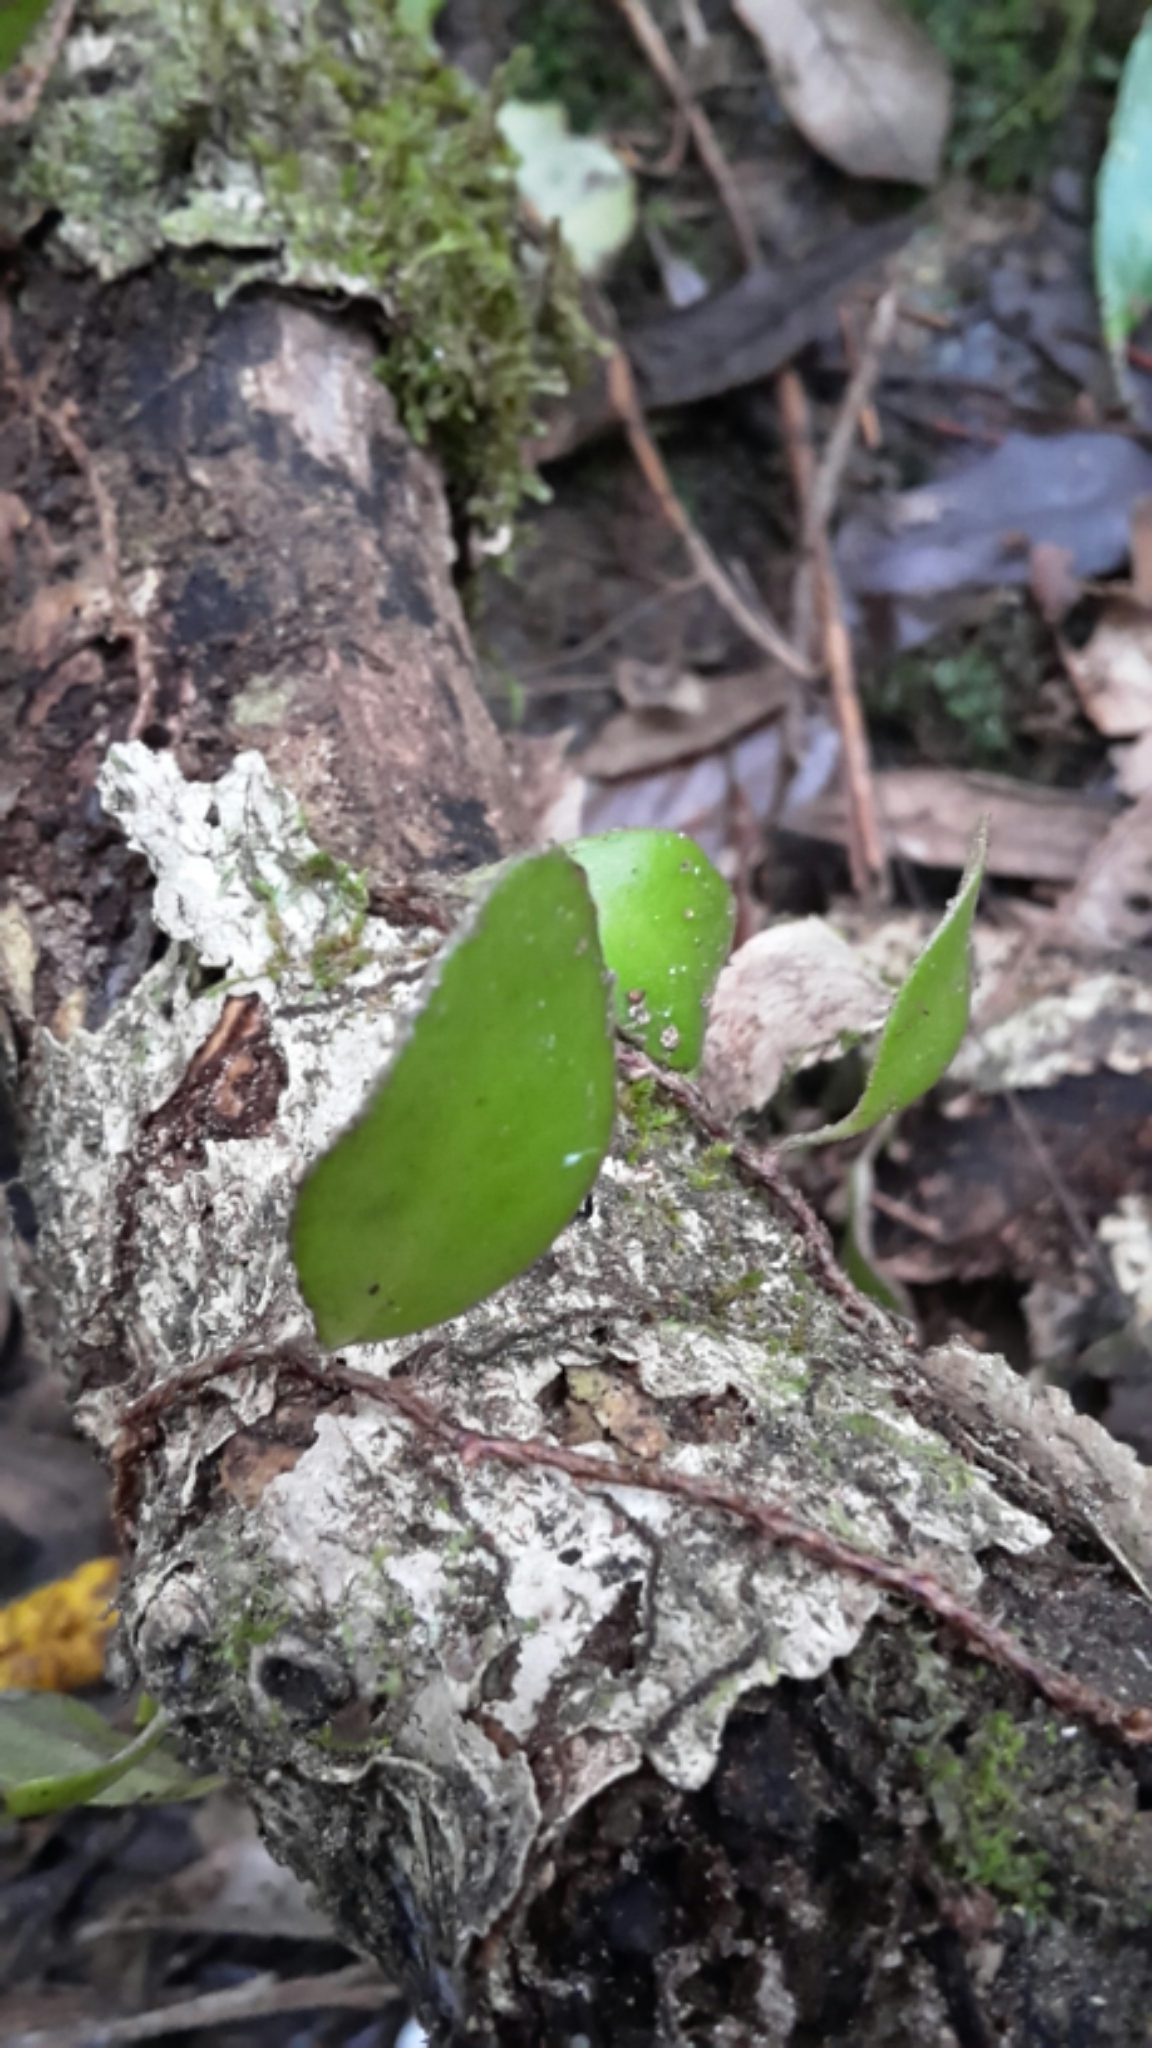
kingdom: Plantae
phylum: Tracheophyta
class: Polypodiopsida
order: Polypodiales
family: Polypodiaceae
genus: Pyrrosia
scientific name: Pyrrosia eleagnifolia
